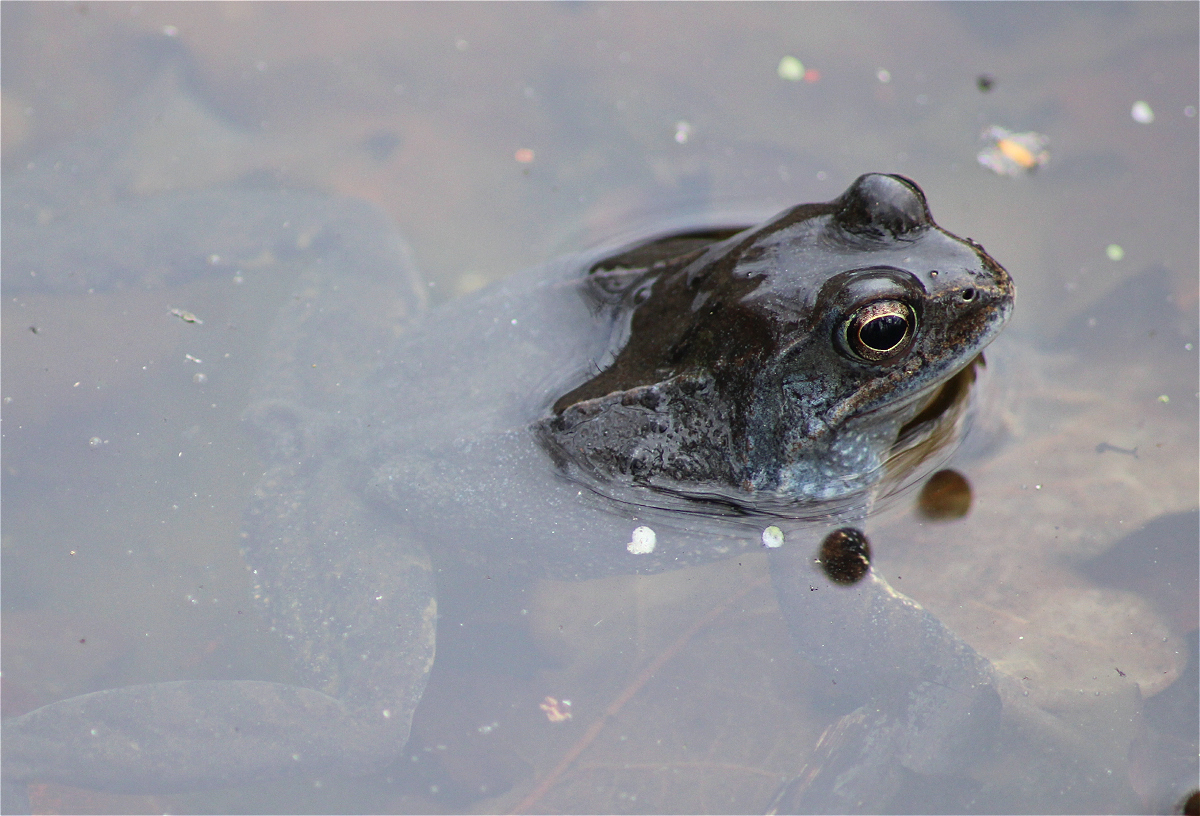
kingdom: Animalia
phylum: Chordata
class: Amphibia
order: Anura
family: Ranidae
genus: Rana
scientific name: Rana arvalis
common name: Moor frog
